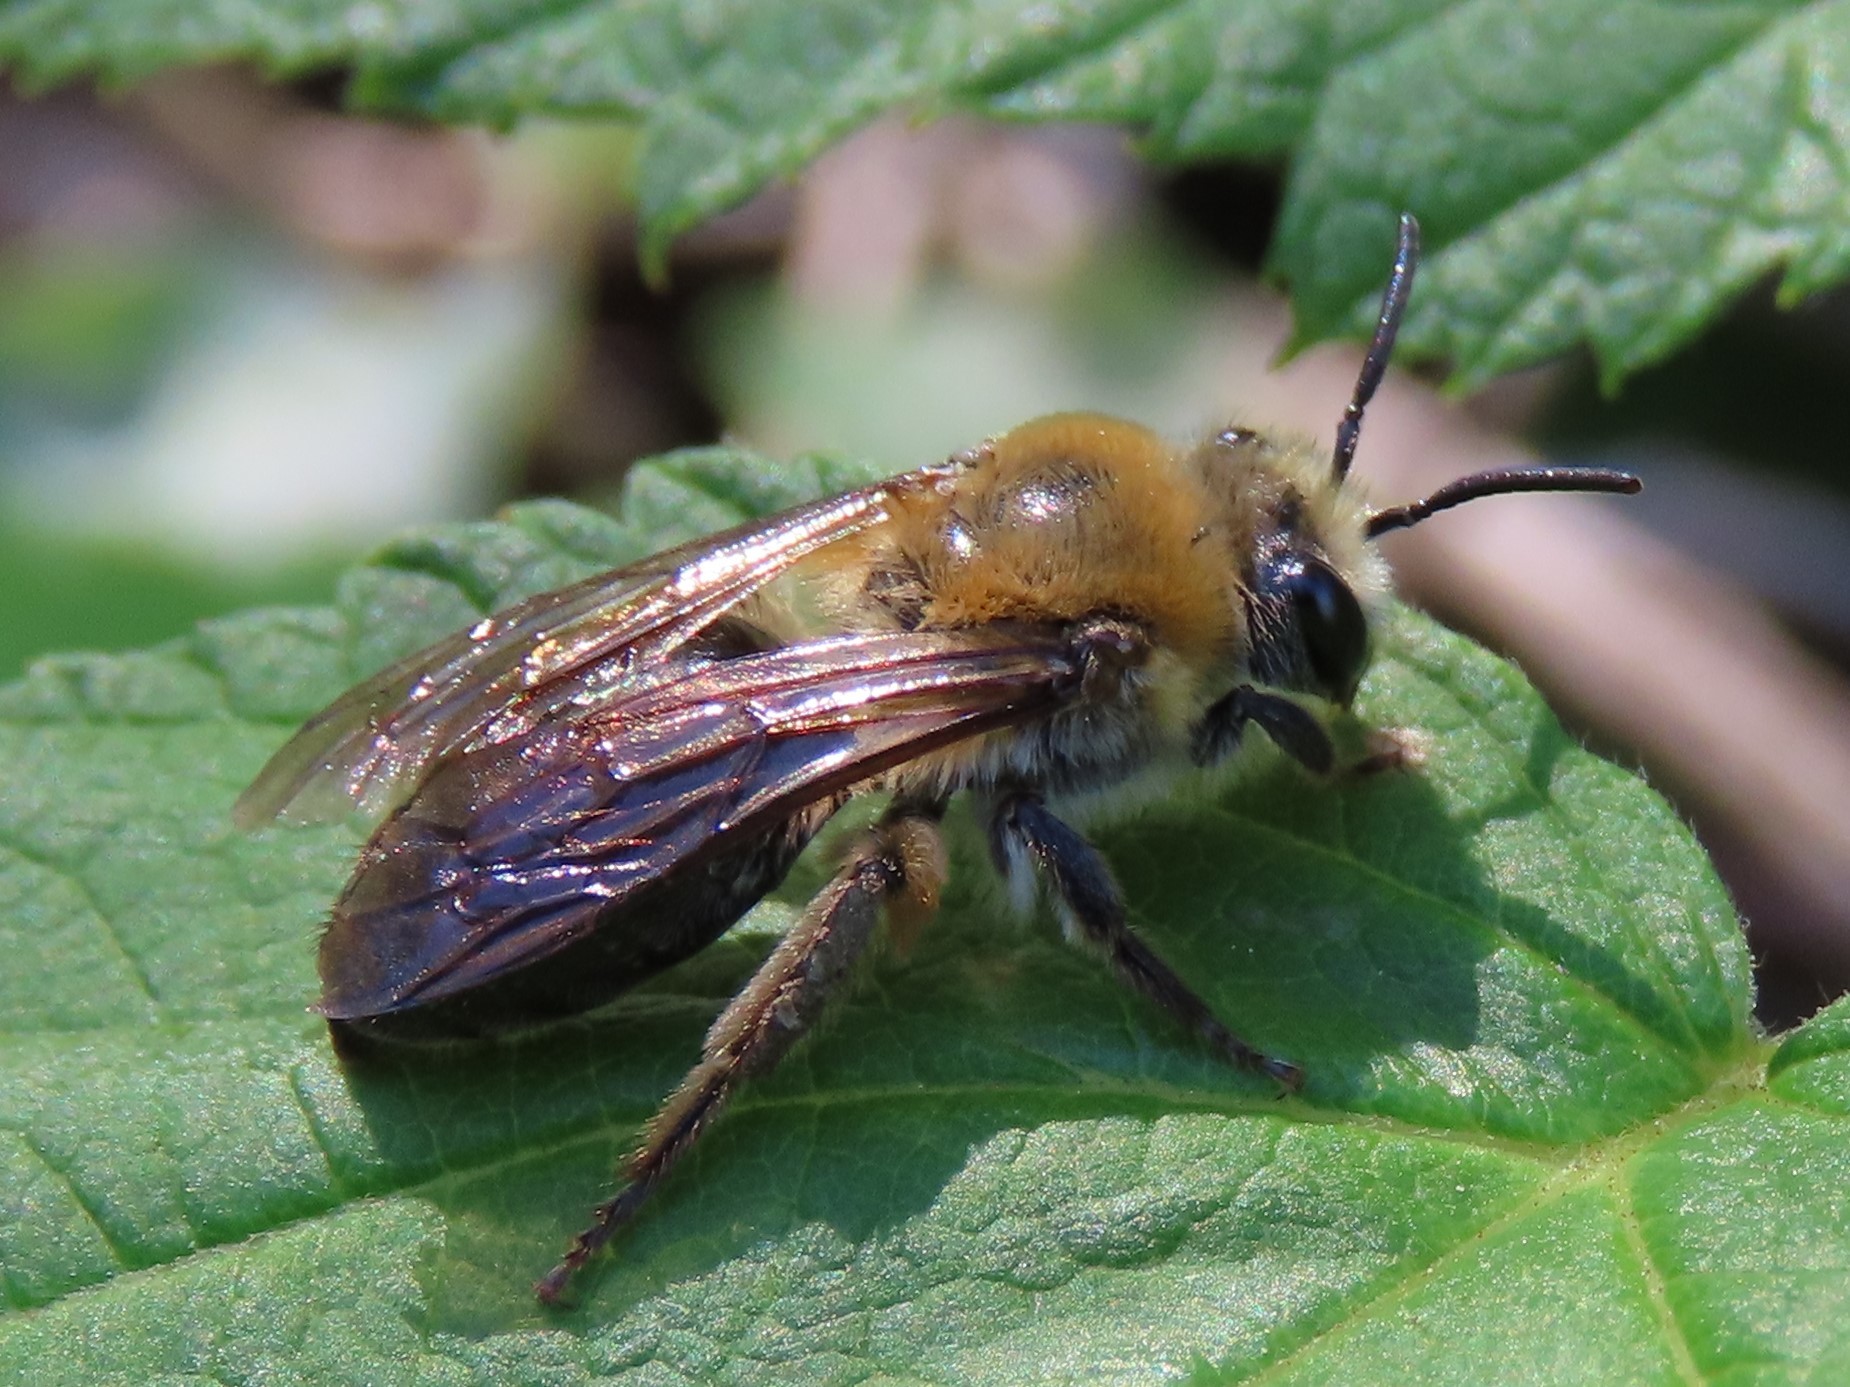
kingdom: Animalia
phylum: Arthropoda
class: Insecta
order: Hymenoptera
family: Colletidae
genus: Colletes
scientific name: Colletes thoracicus
